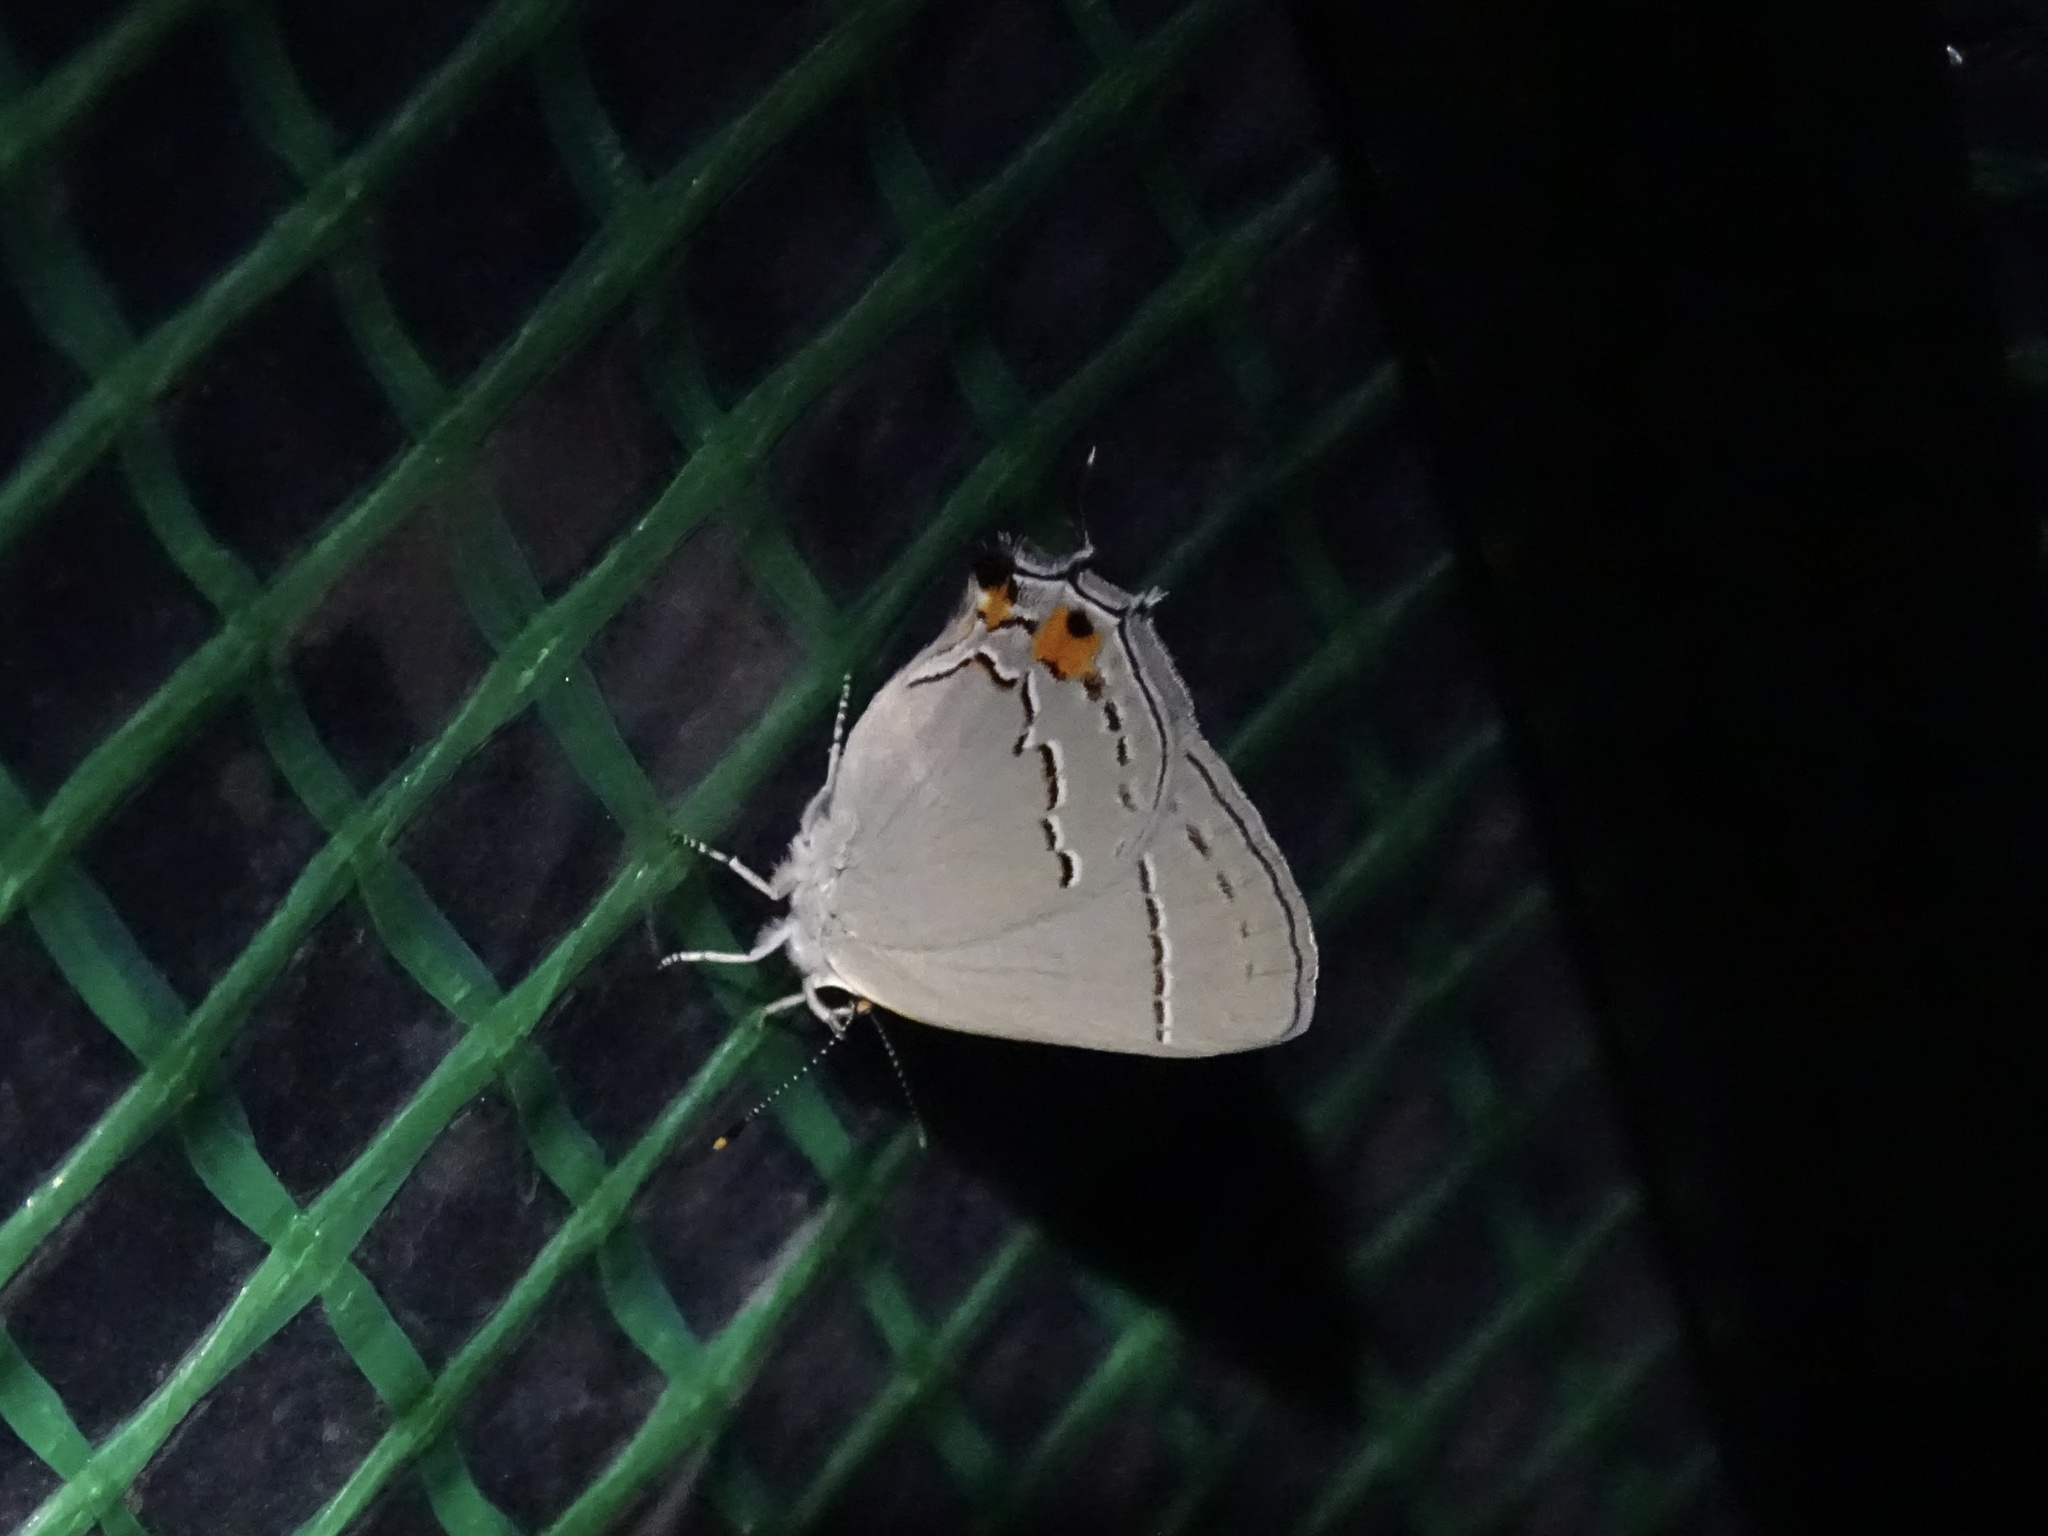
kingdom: Animalia
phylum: Arthropoda
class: Insecta
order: Lepidoptera
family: Lycaenidae
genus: Strymon
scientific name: Strymon melinus
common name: Gray hairstreak
